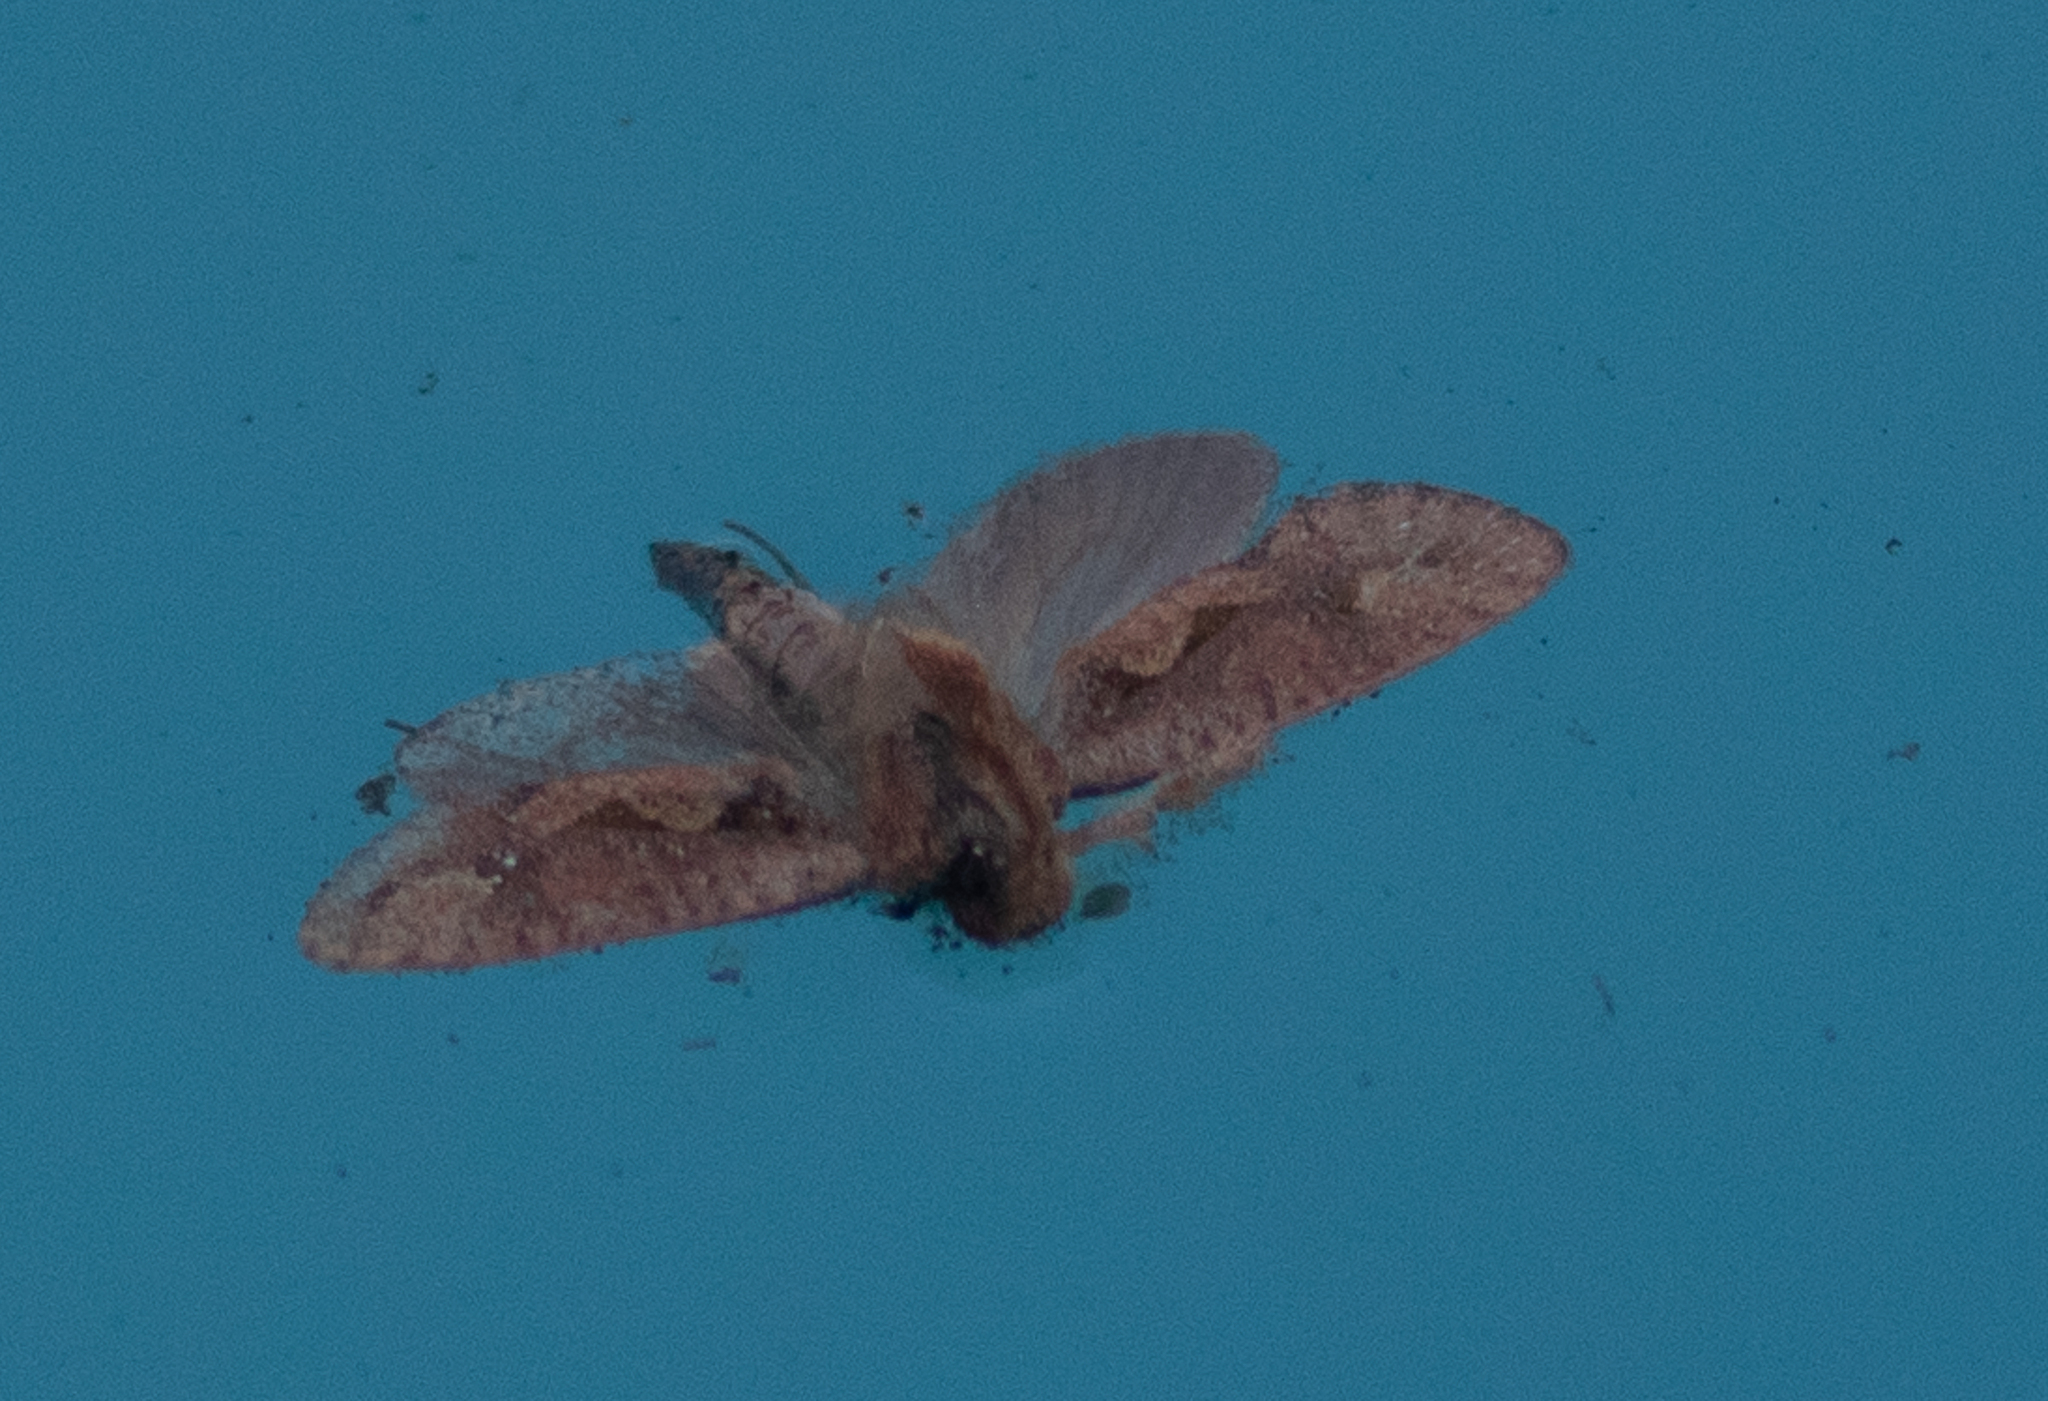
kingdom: Animalia
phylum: Arthropoda
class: Insecta
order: Lepidoptera
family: Tineidae
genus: Acrolophus
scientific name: Acrolophus walsinghami
